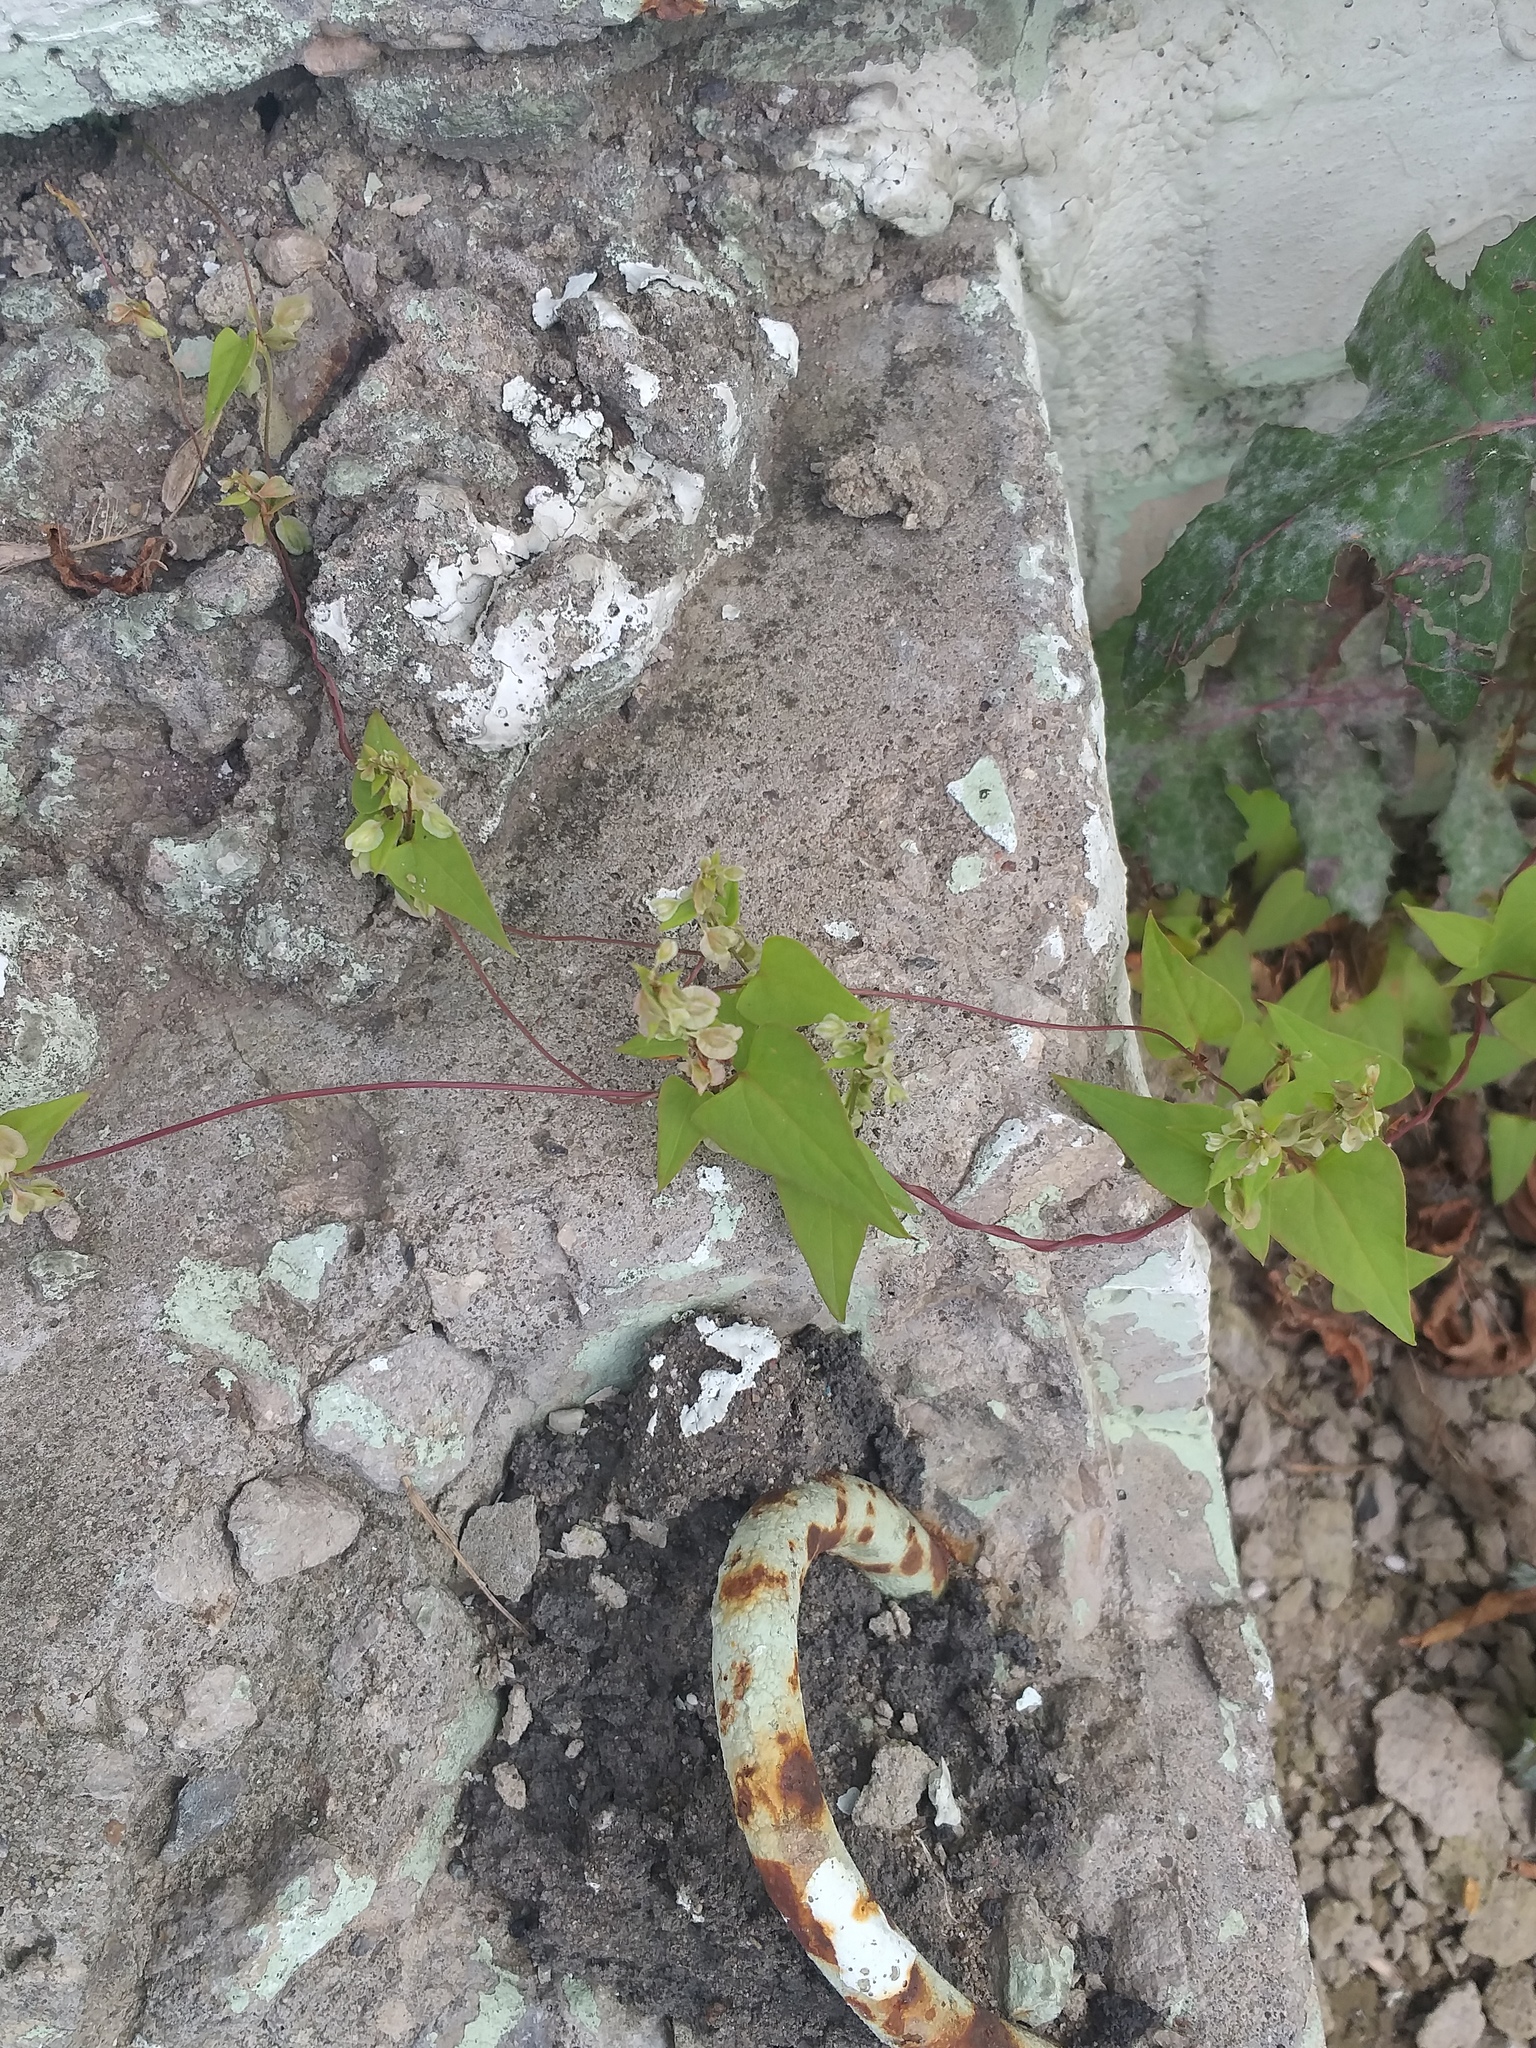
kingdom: Plantae
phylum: Tracheophyta
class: Magnoliopsida
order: Caryophyllales
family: Polygonaceae
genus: Fallopia
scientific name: Fallopia dumetorum
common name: Copse-bindweed
